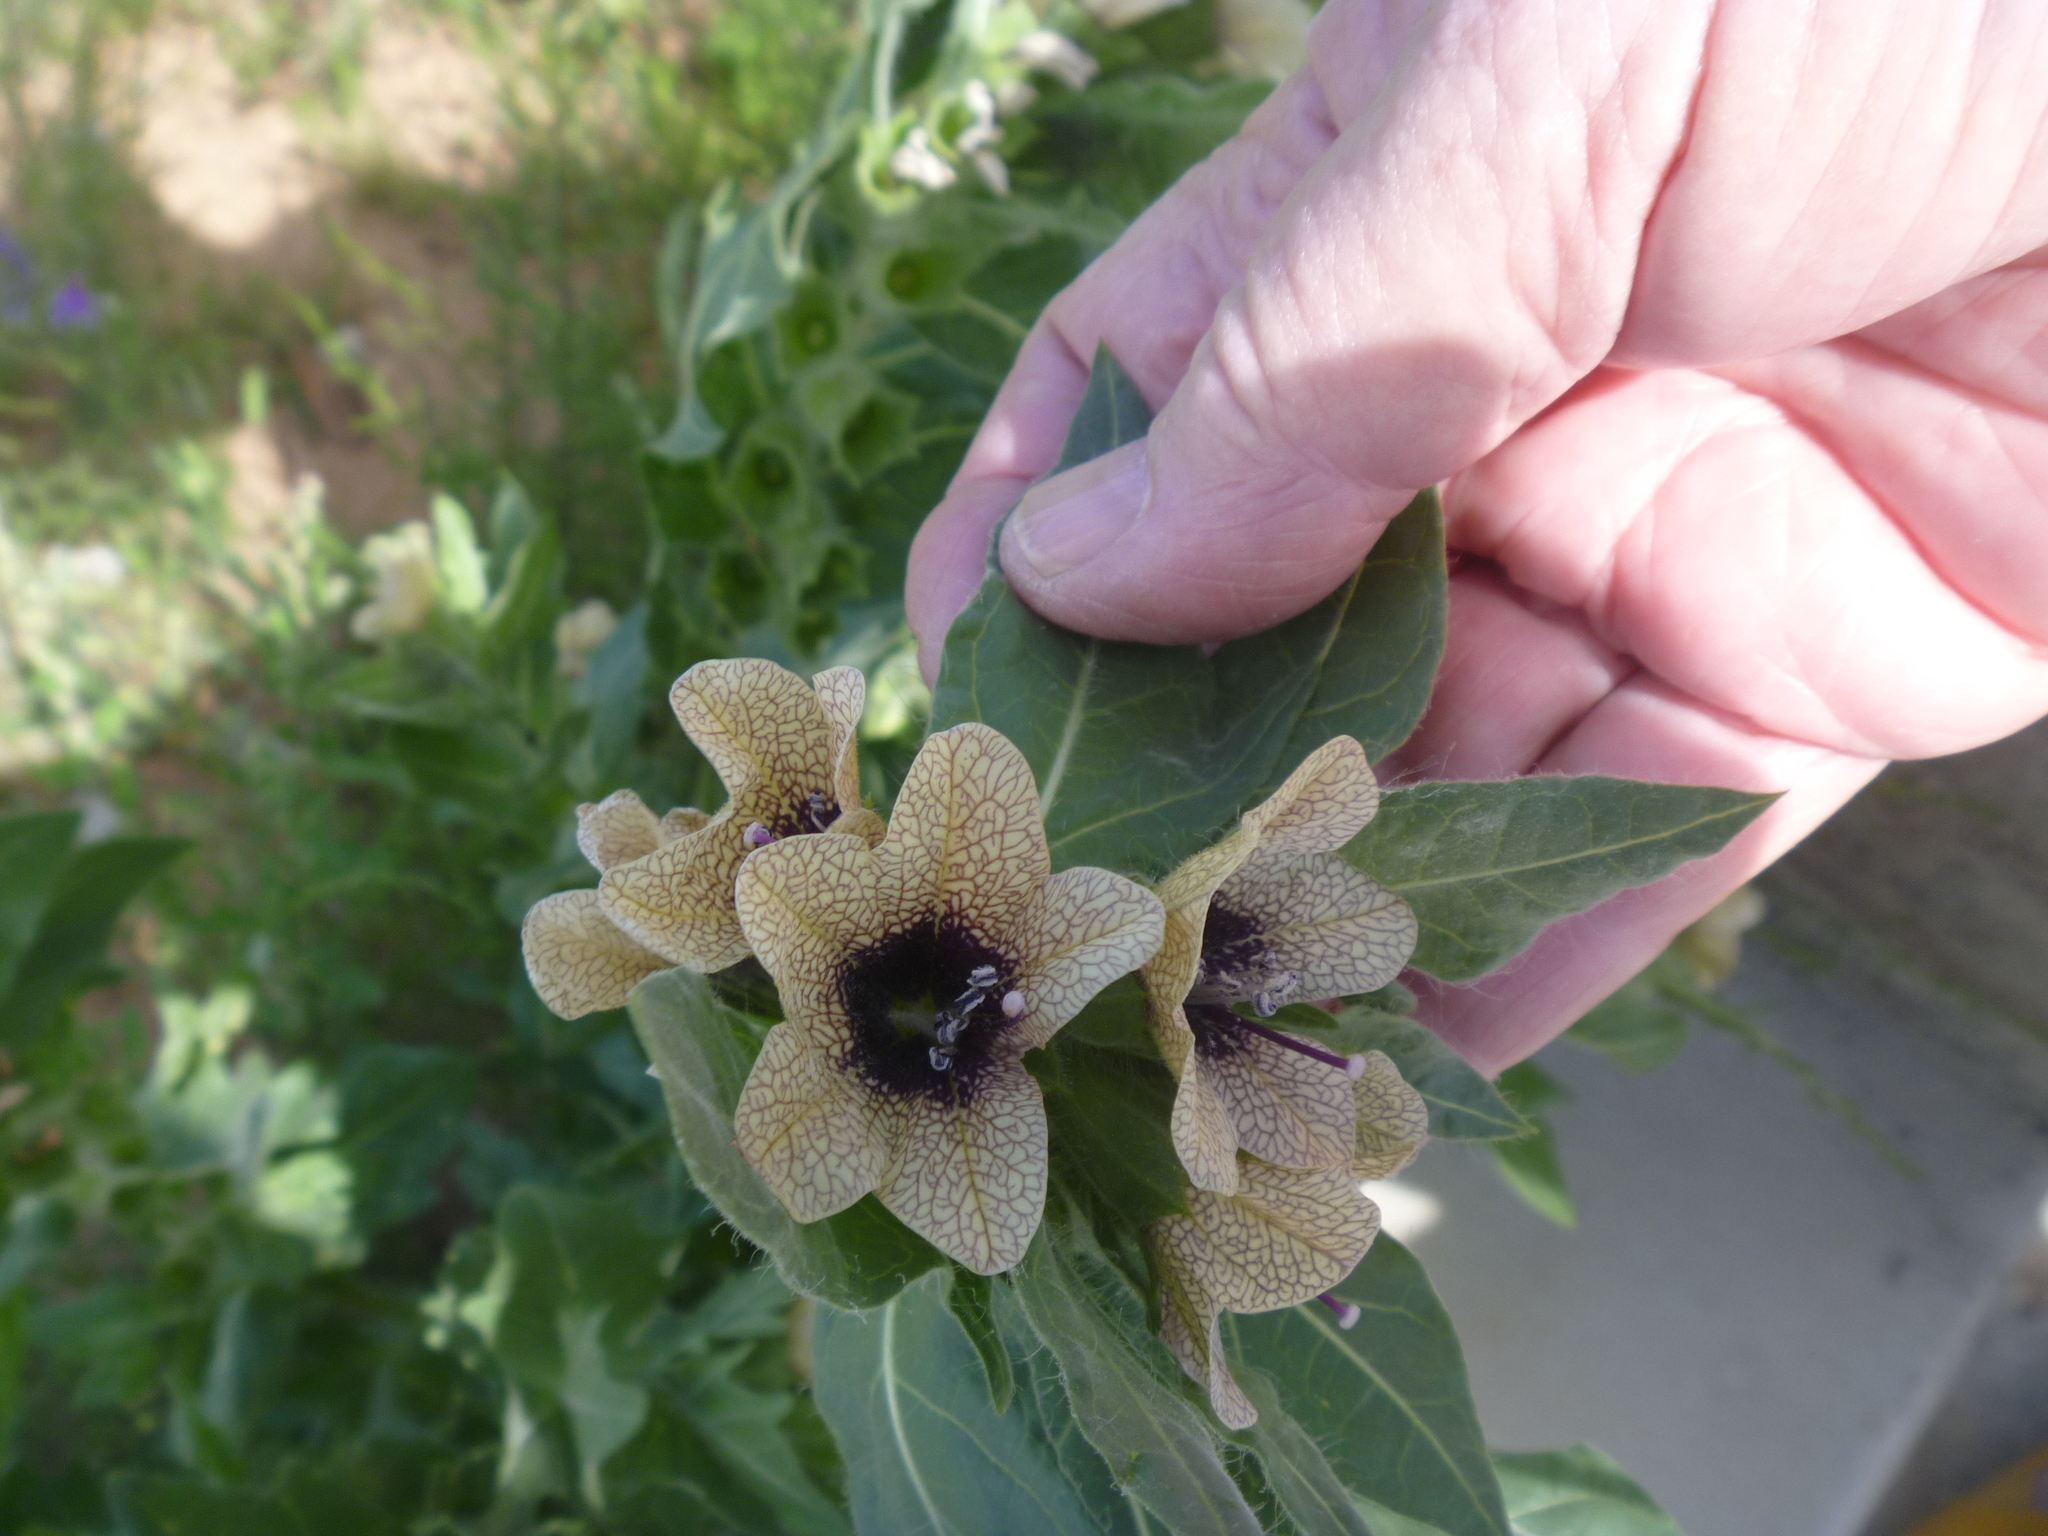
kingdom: Plantae
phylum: Tracheophyta
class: Magnoliopsida
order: Solanales
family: Solanaceae
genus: Hyoscyamus
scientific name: Hyoscyamus niger
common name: Henbane
